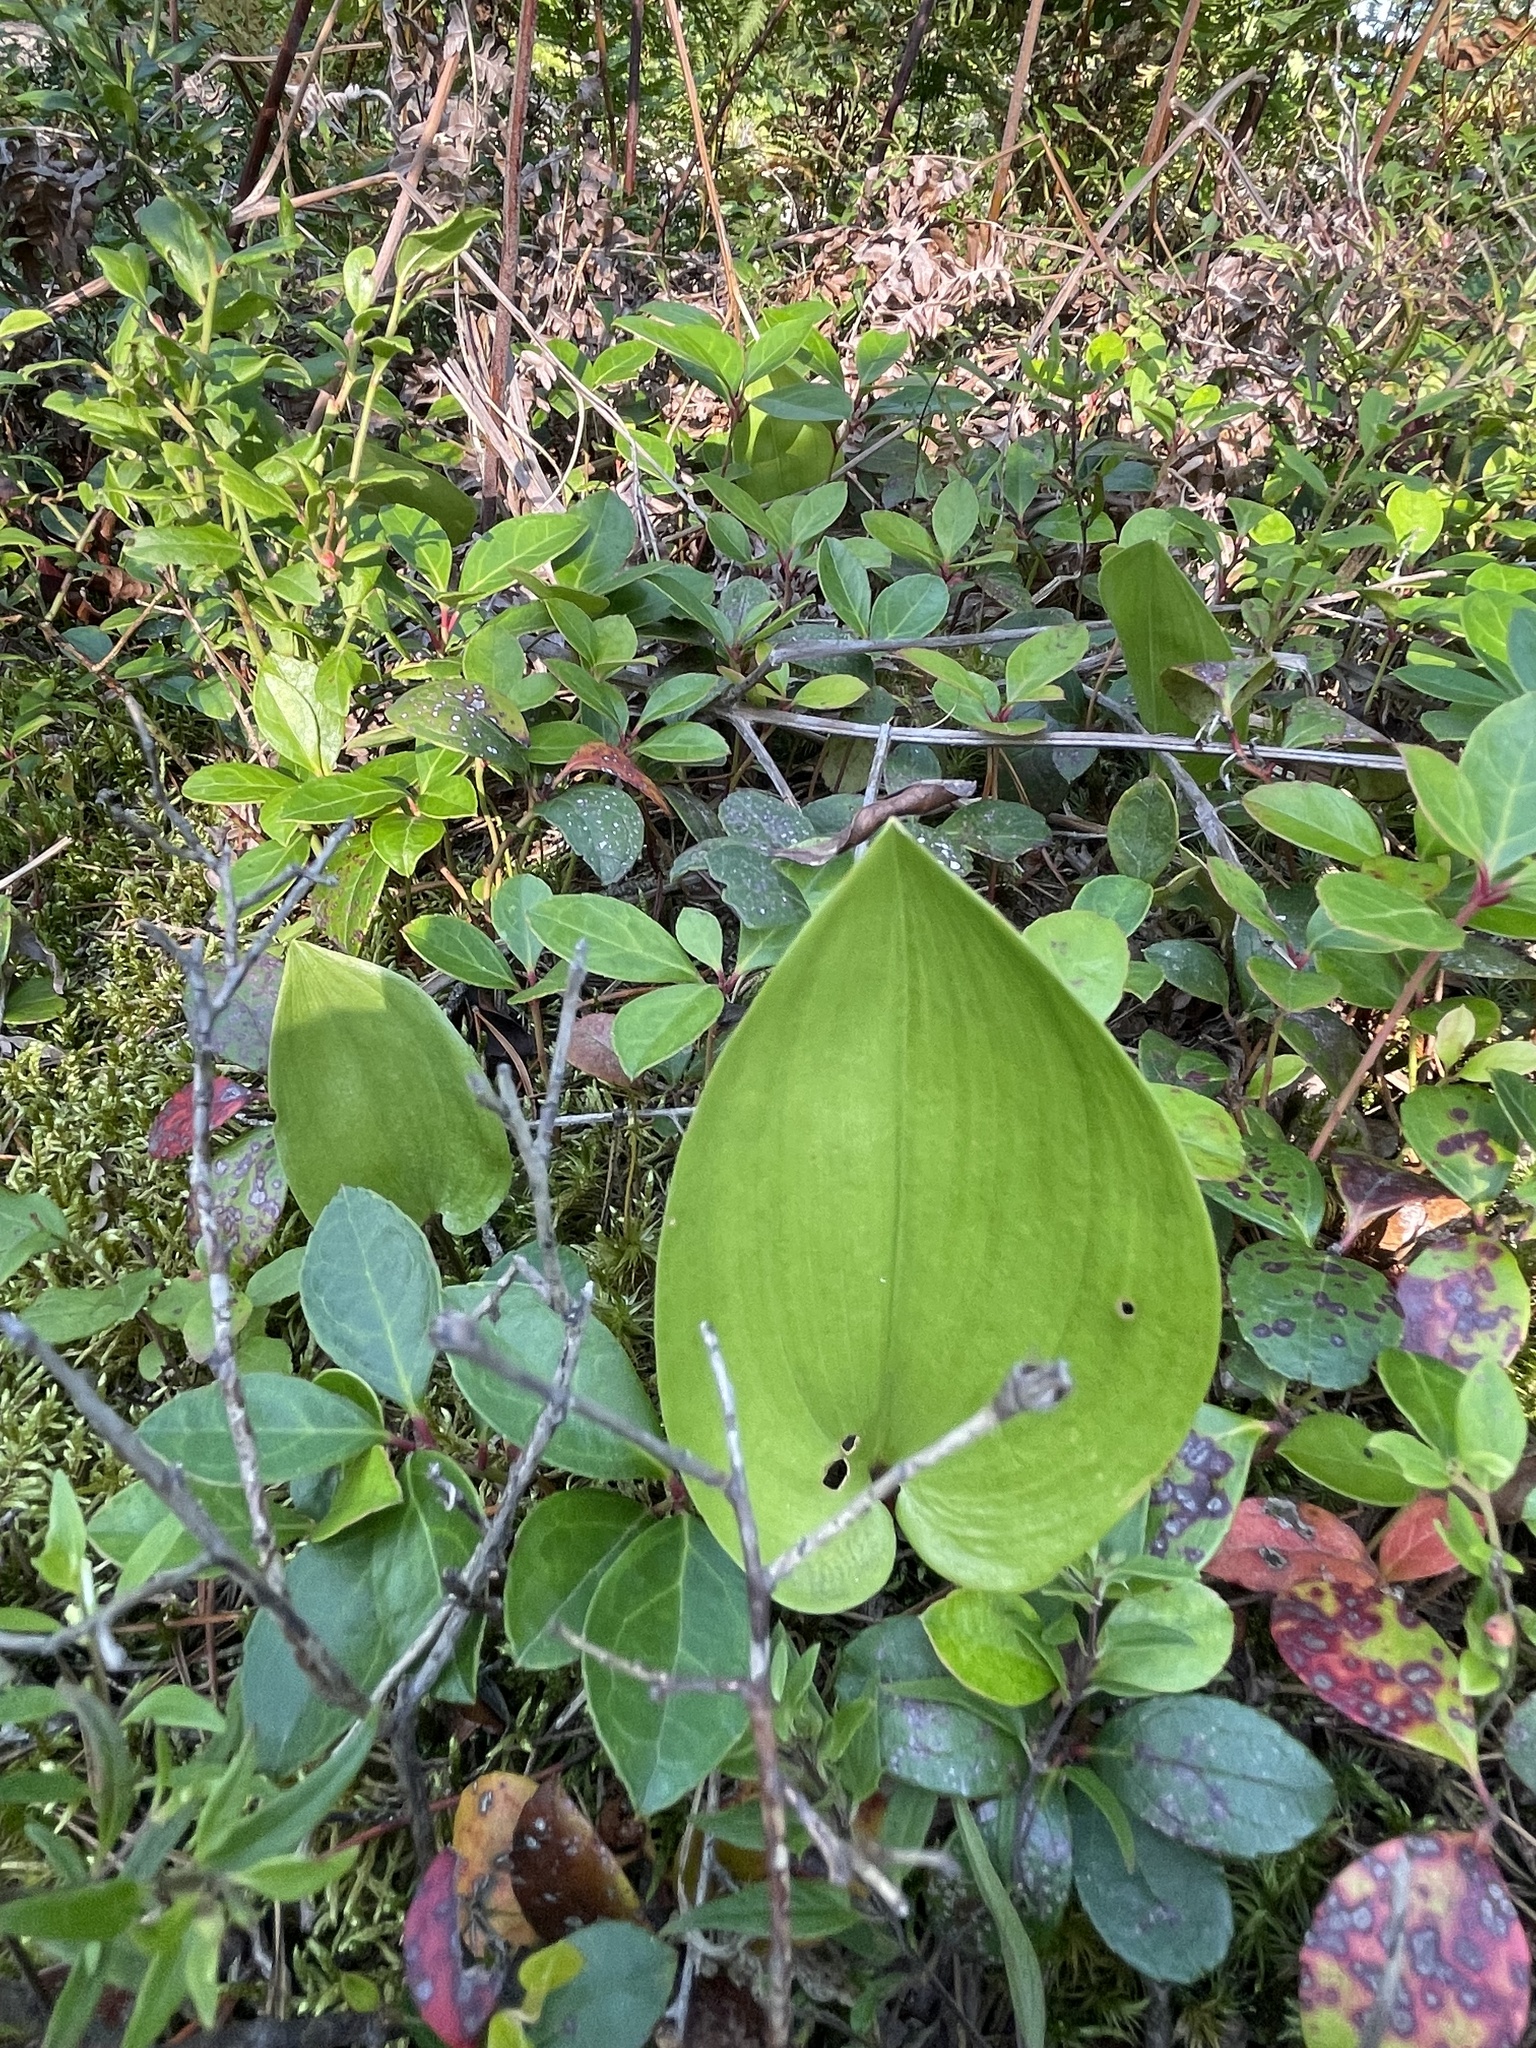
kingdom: Plantae
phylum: Tracheophyta
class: Liliopsida
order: Asparagales
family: Asparagaceae
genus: Maianthemum
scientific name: Maianthemum canadense
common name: False lily-of-the-valley
